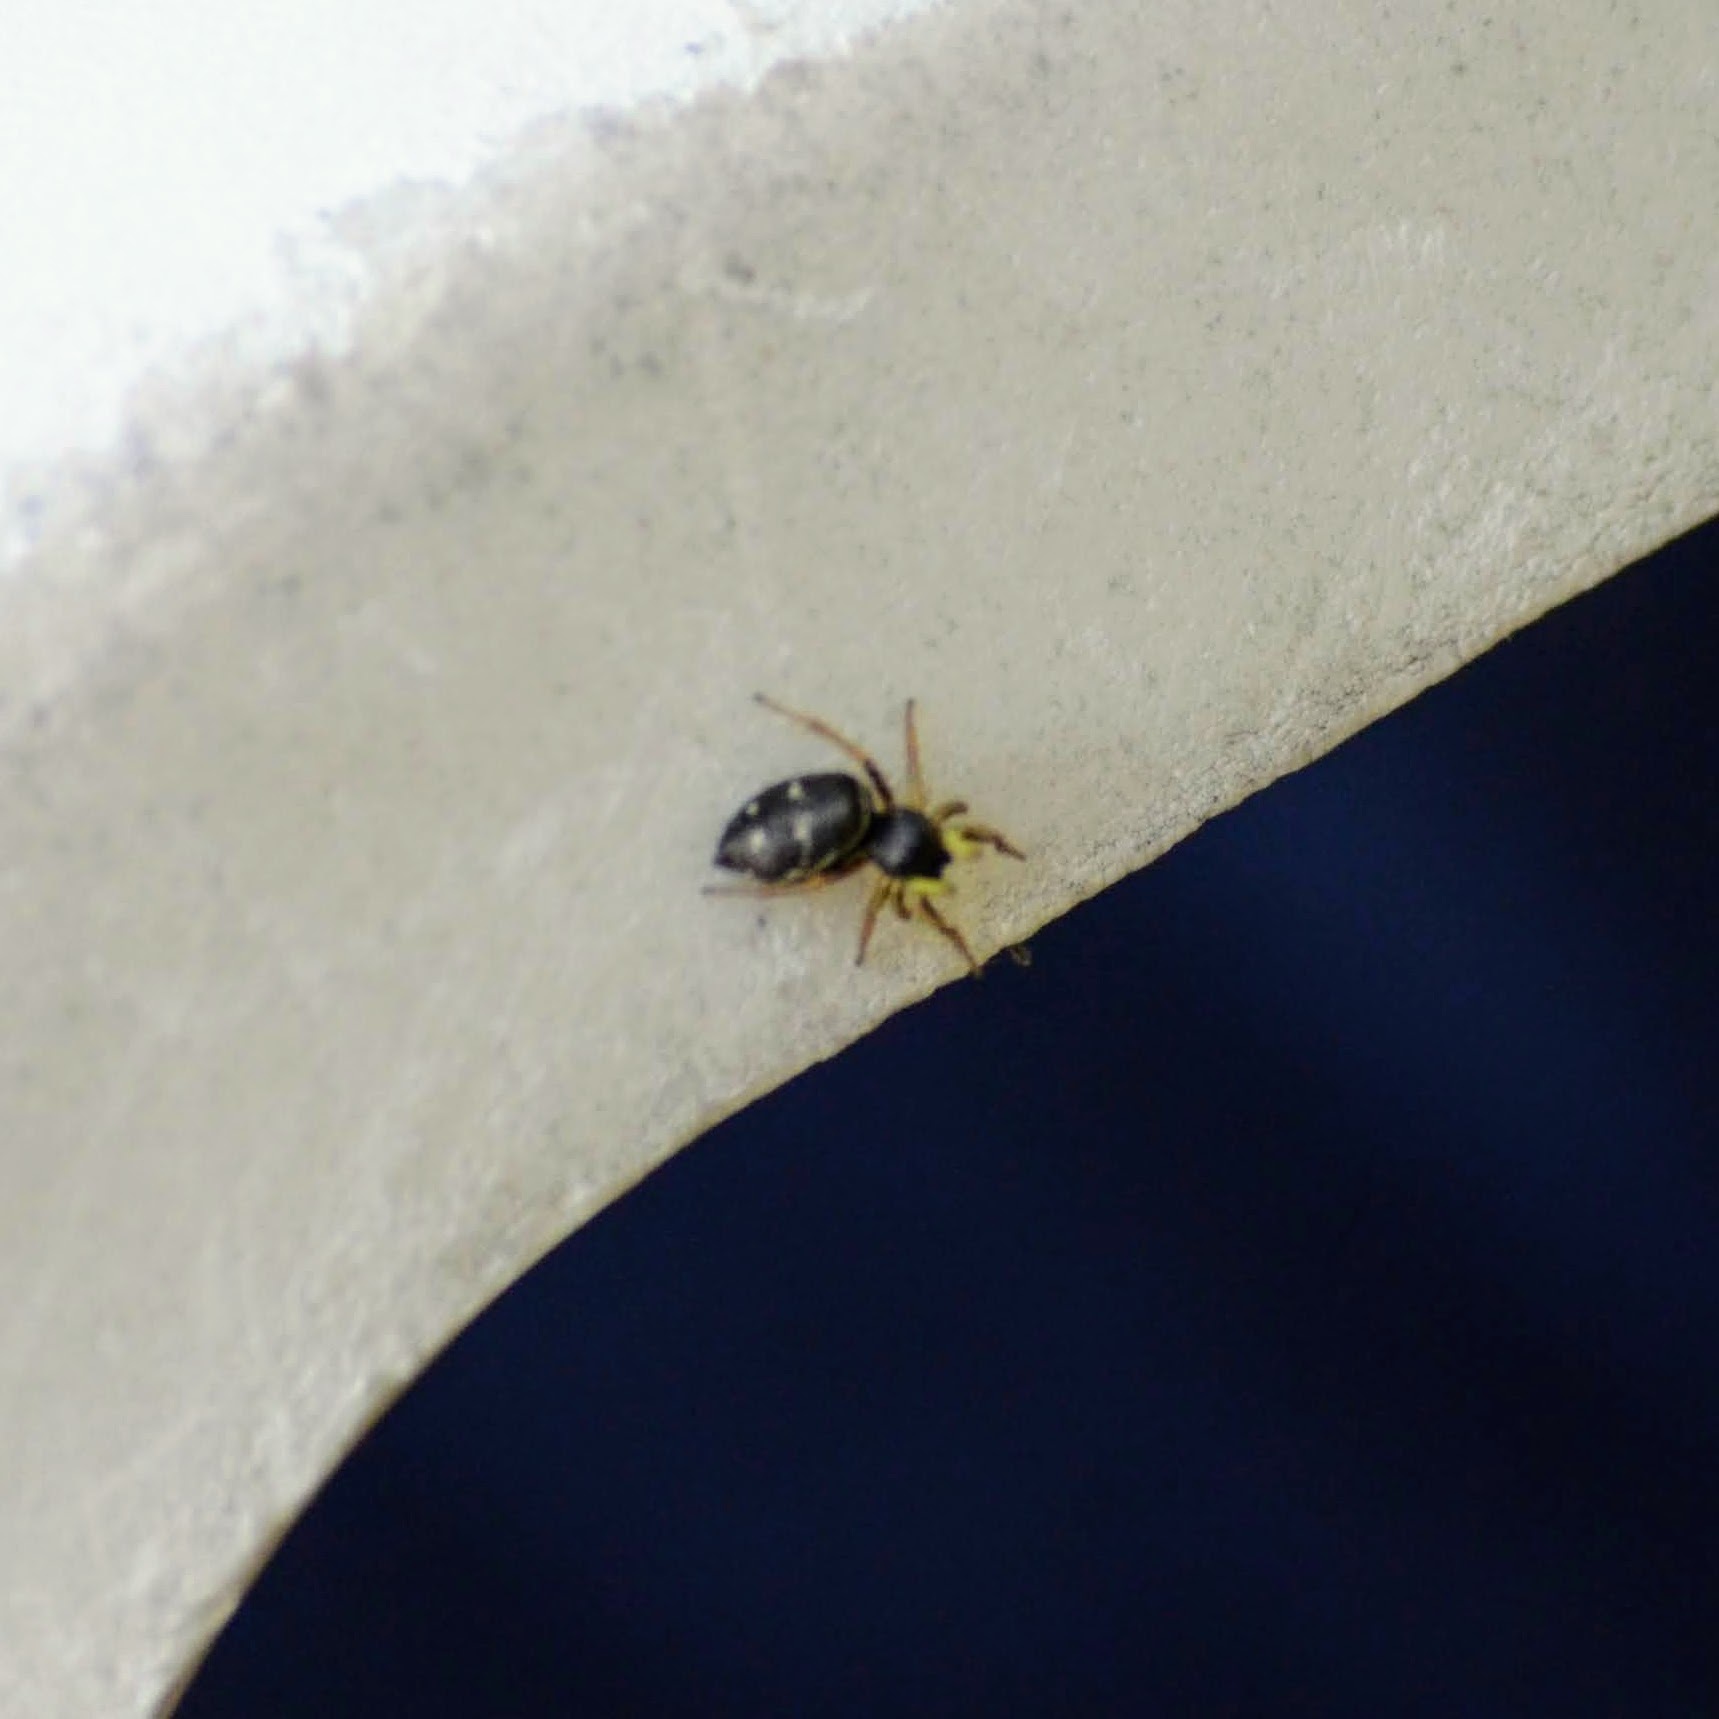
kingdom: Animalia
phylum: Arthropoda
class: Arachnida
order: Araneae
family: Salticidae
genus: Heliophanus
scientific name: Heliophanus cupreus
